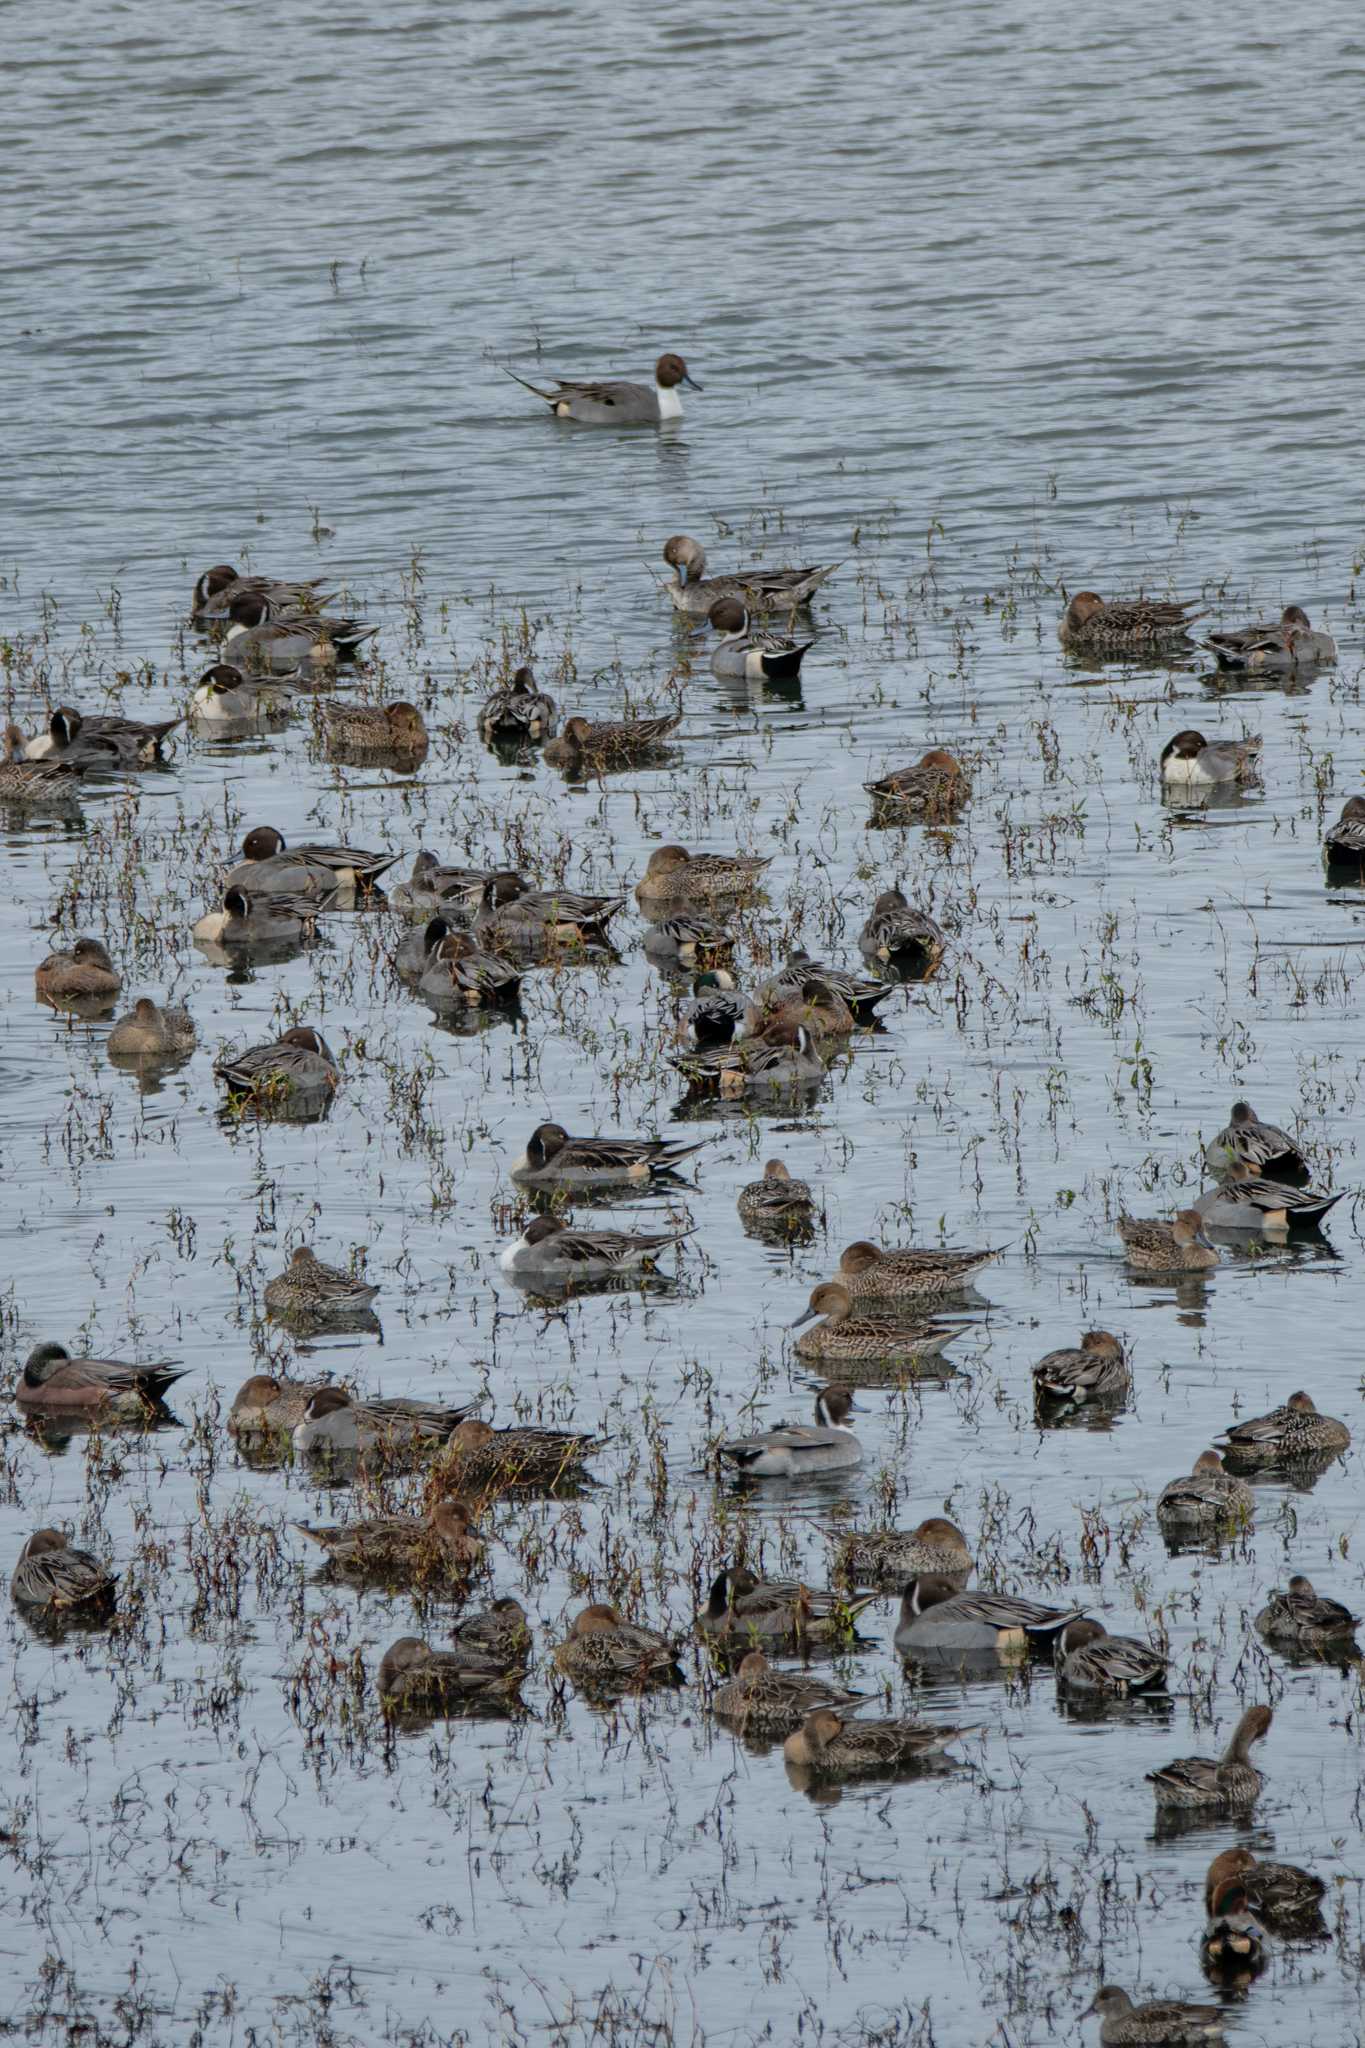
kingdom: Animalia
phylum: Chordata
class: Aves
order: Anseriformes
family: Anatidae
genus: Anas
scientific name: Anas acuta
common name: Northern pintail
